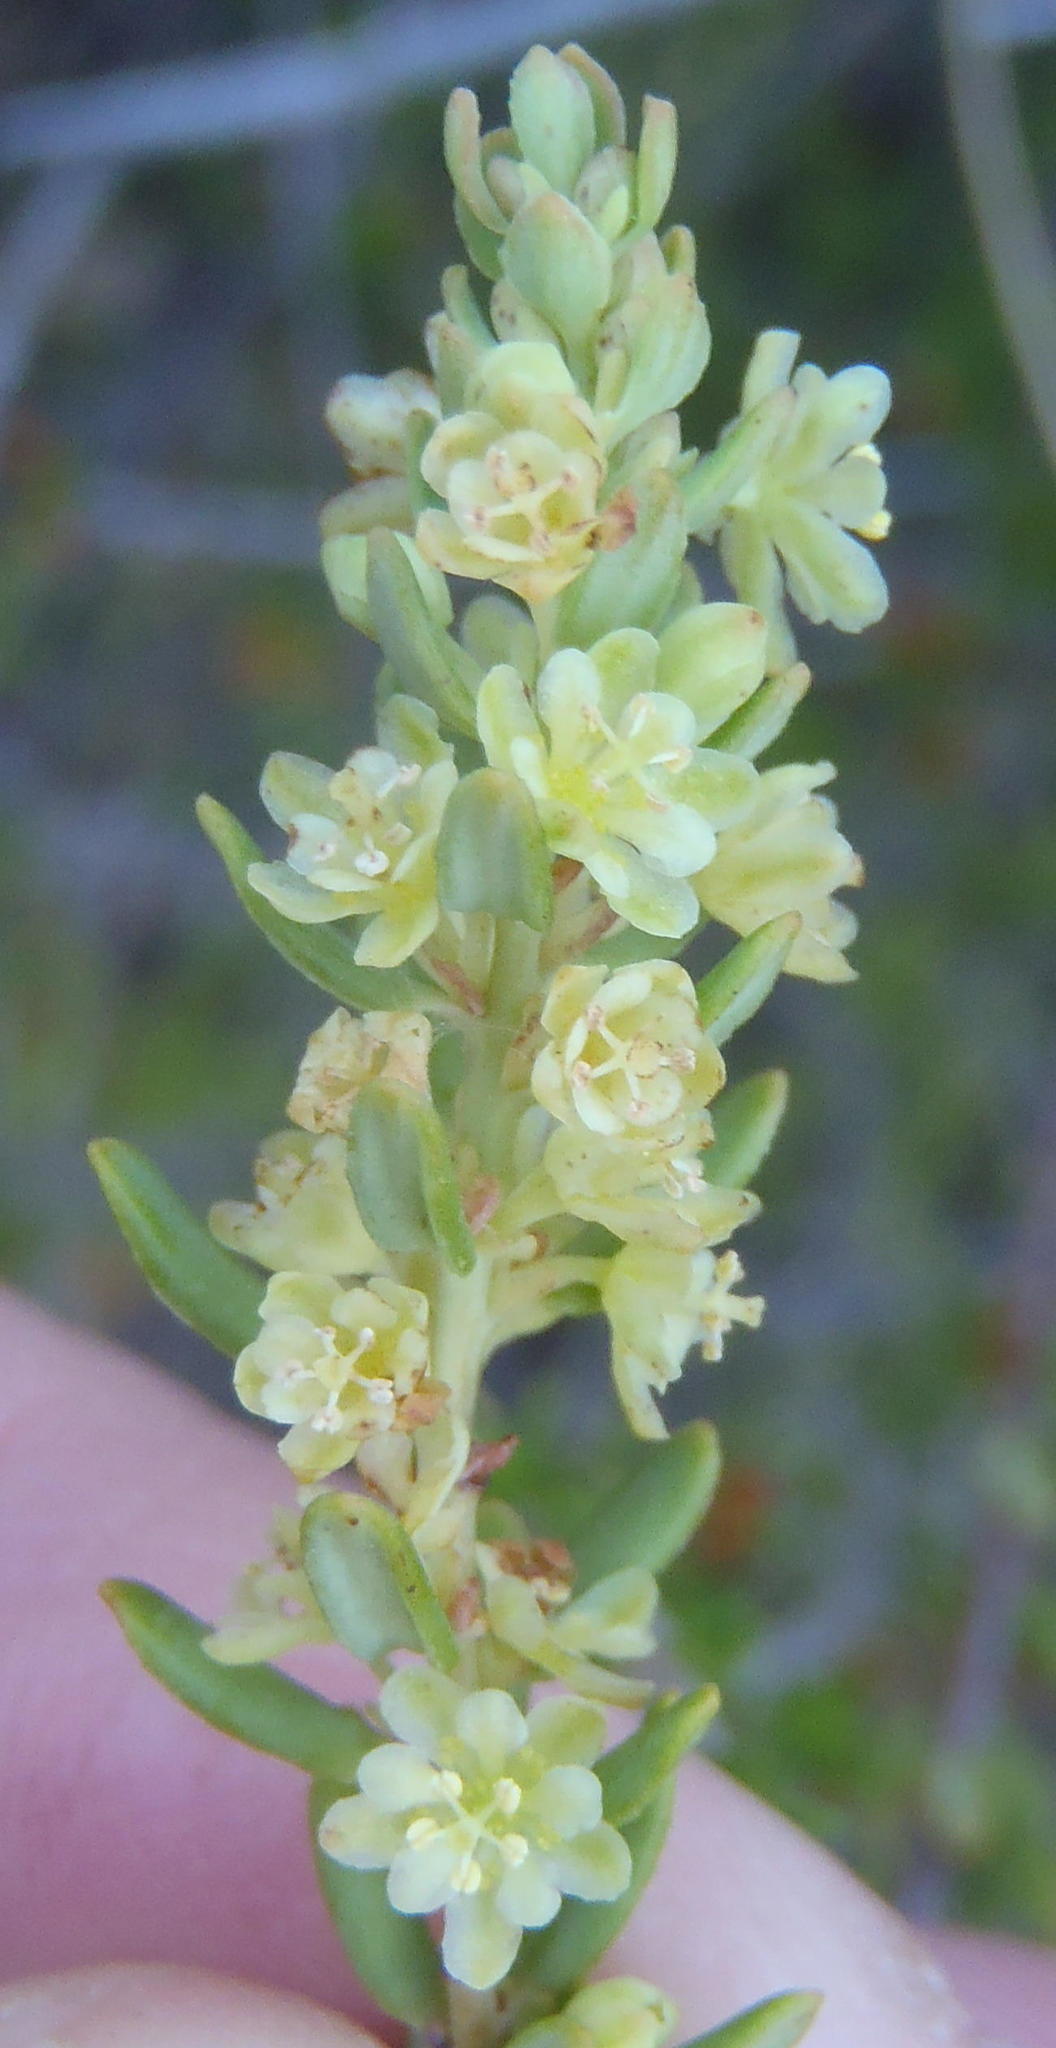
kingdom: Plantae
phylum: Tracheophyta
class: Magnoliopsida
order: Malpighiales
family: Peraceae
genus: Clutia
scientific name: Clutia polifolia
